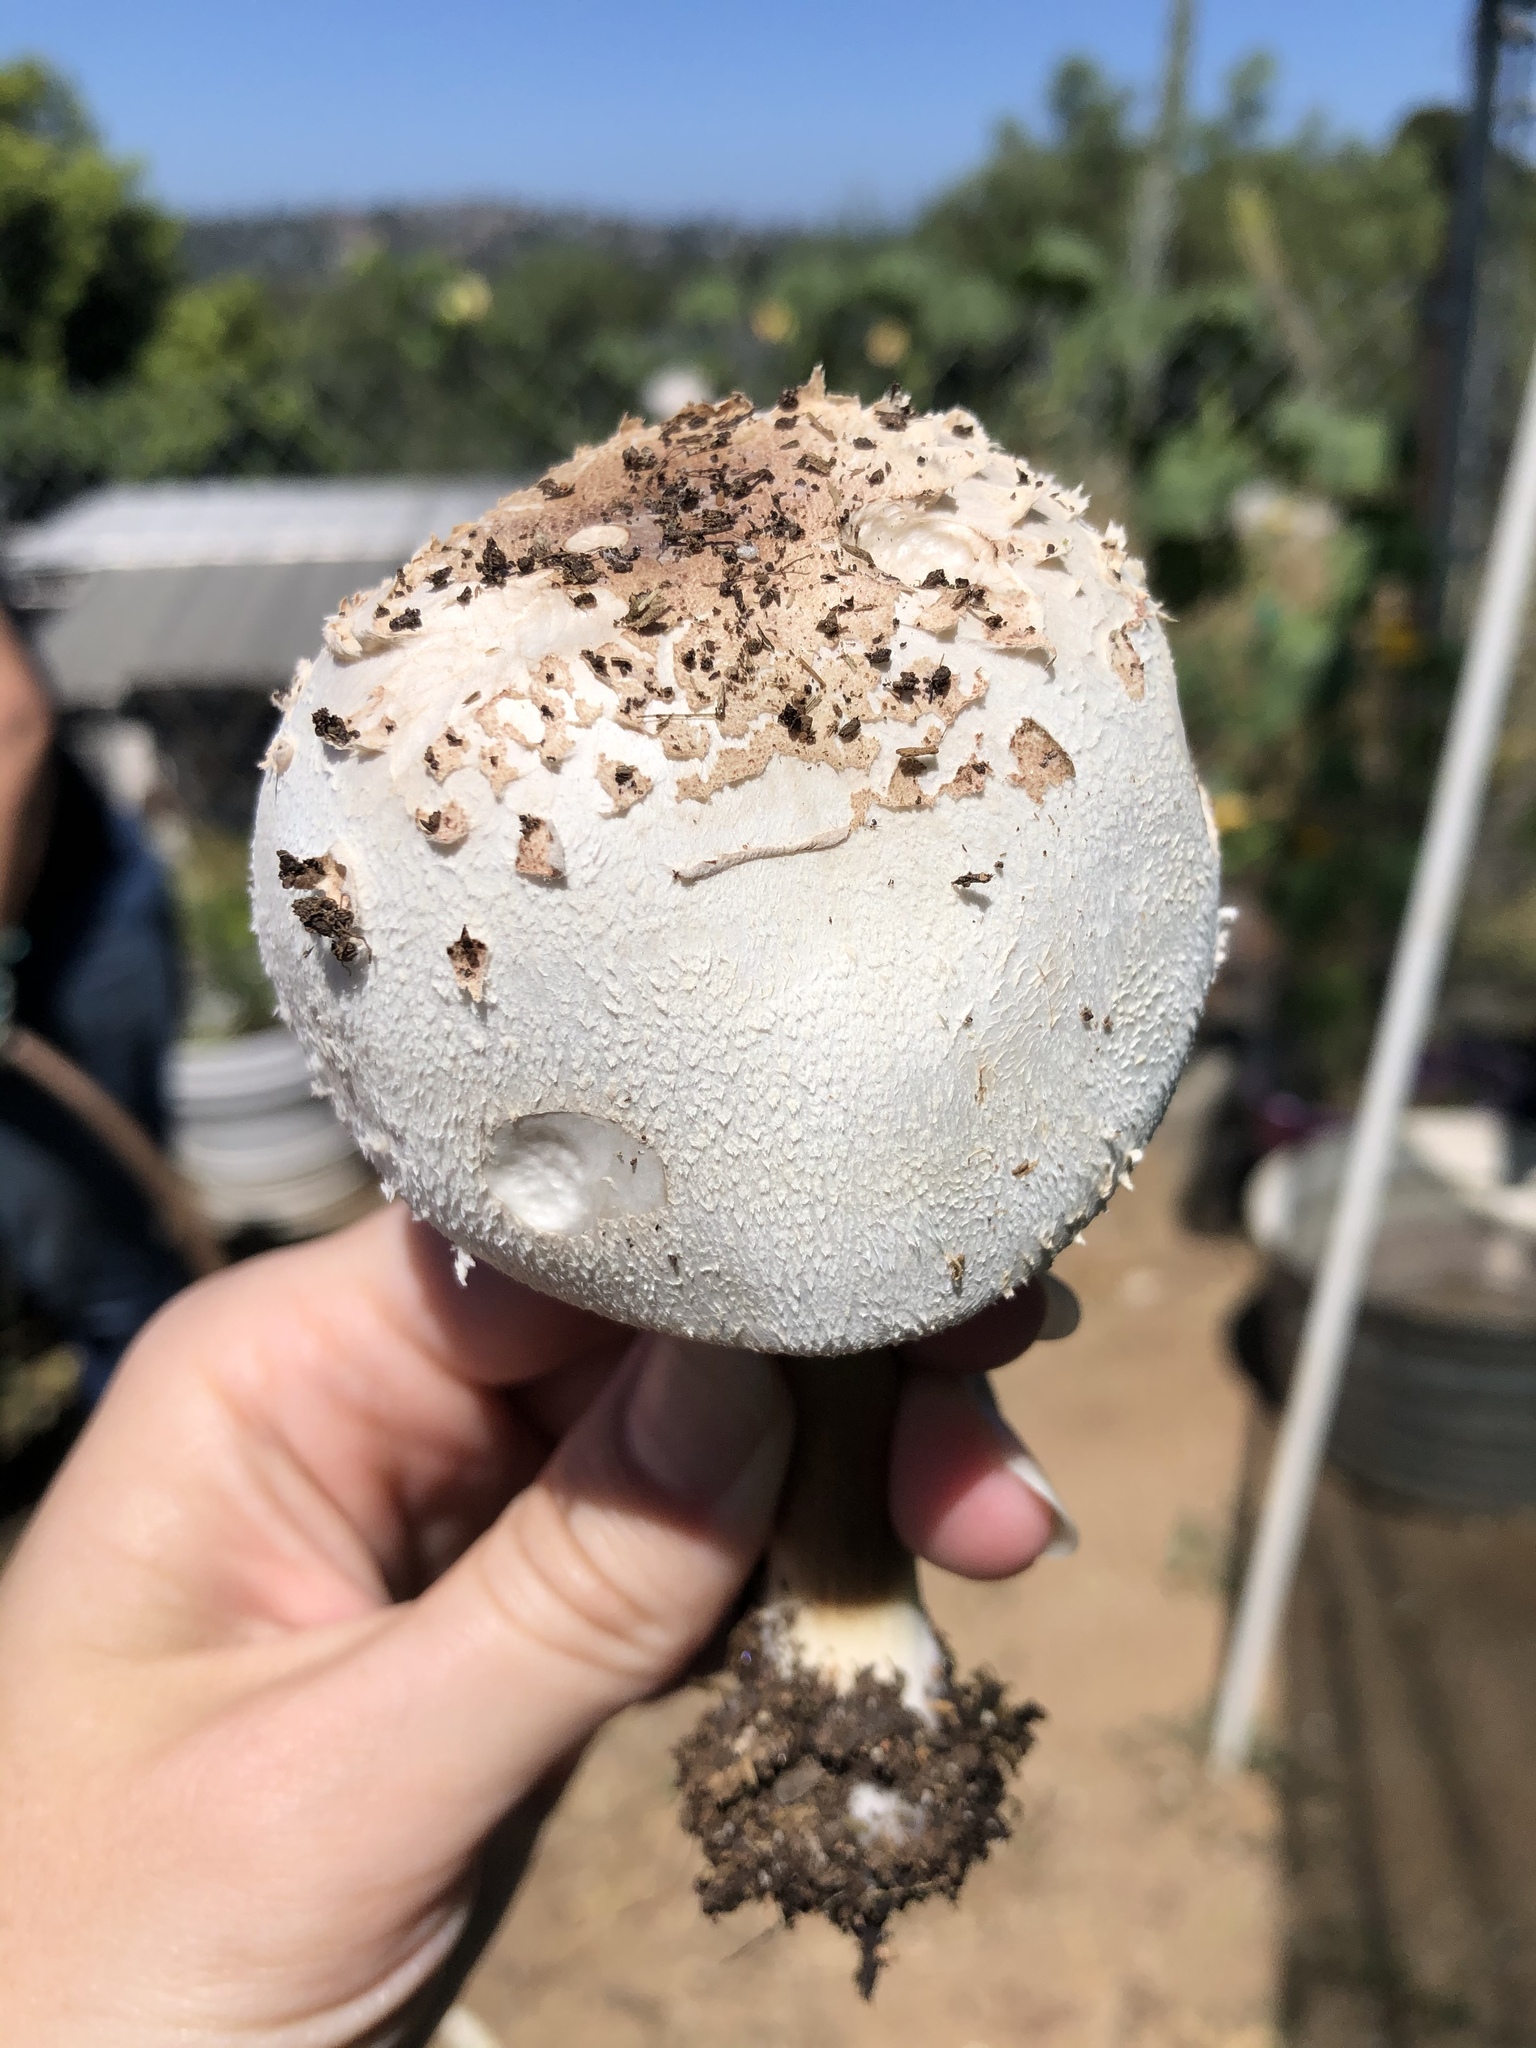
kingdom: Fungi
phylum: Basidiomycota
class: Agaricomycetes
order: Agaricales
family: Agaricaceae
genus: Chlorophyllum
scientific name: Chlorophyllum molybdites
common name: False parasol
